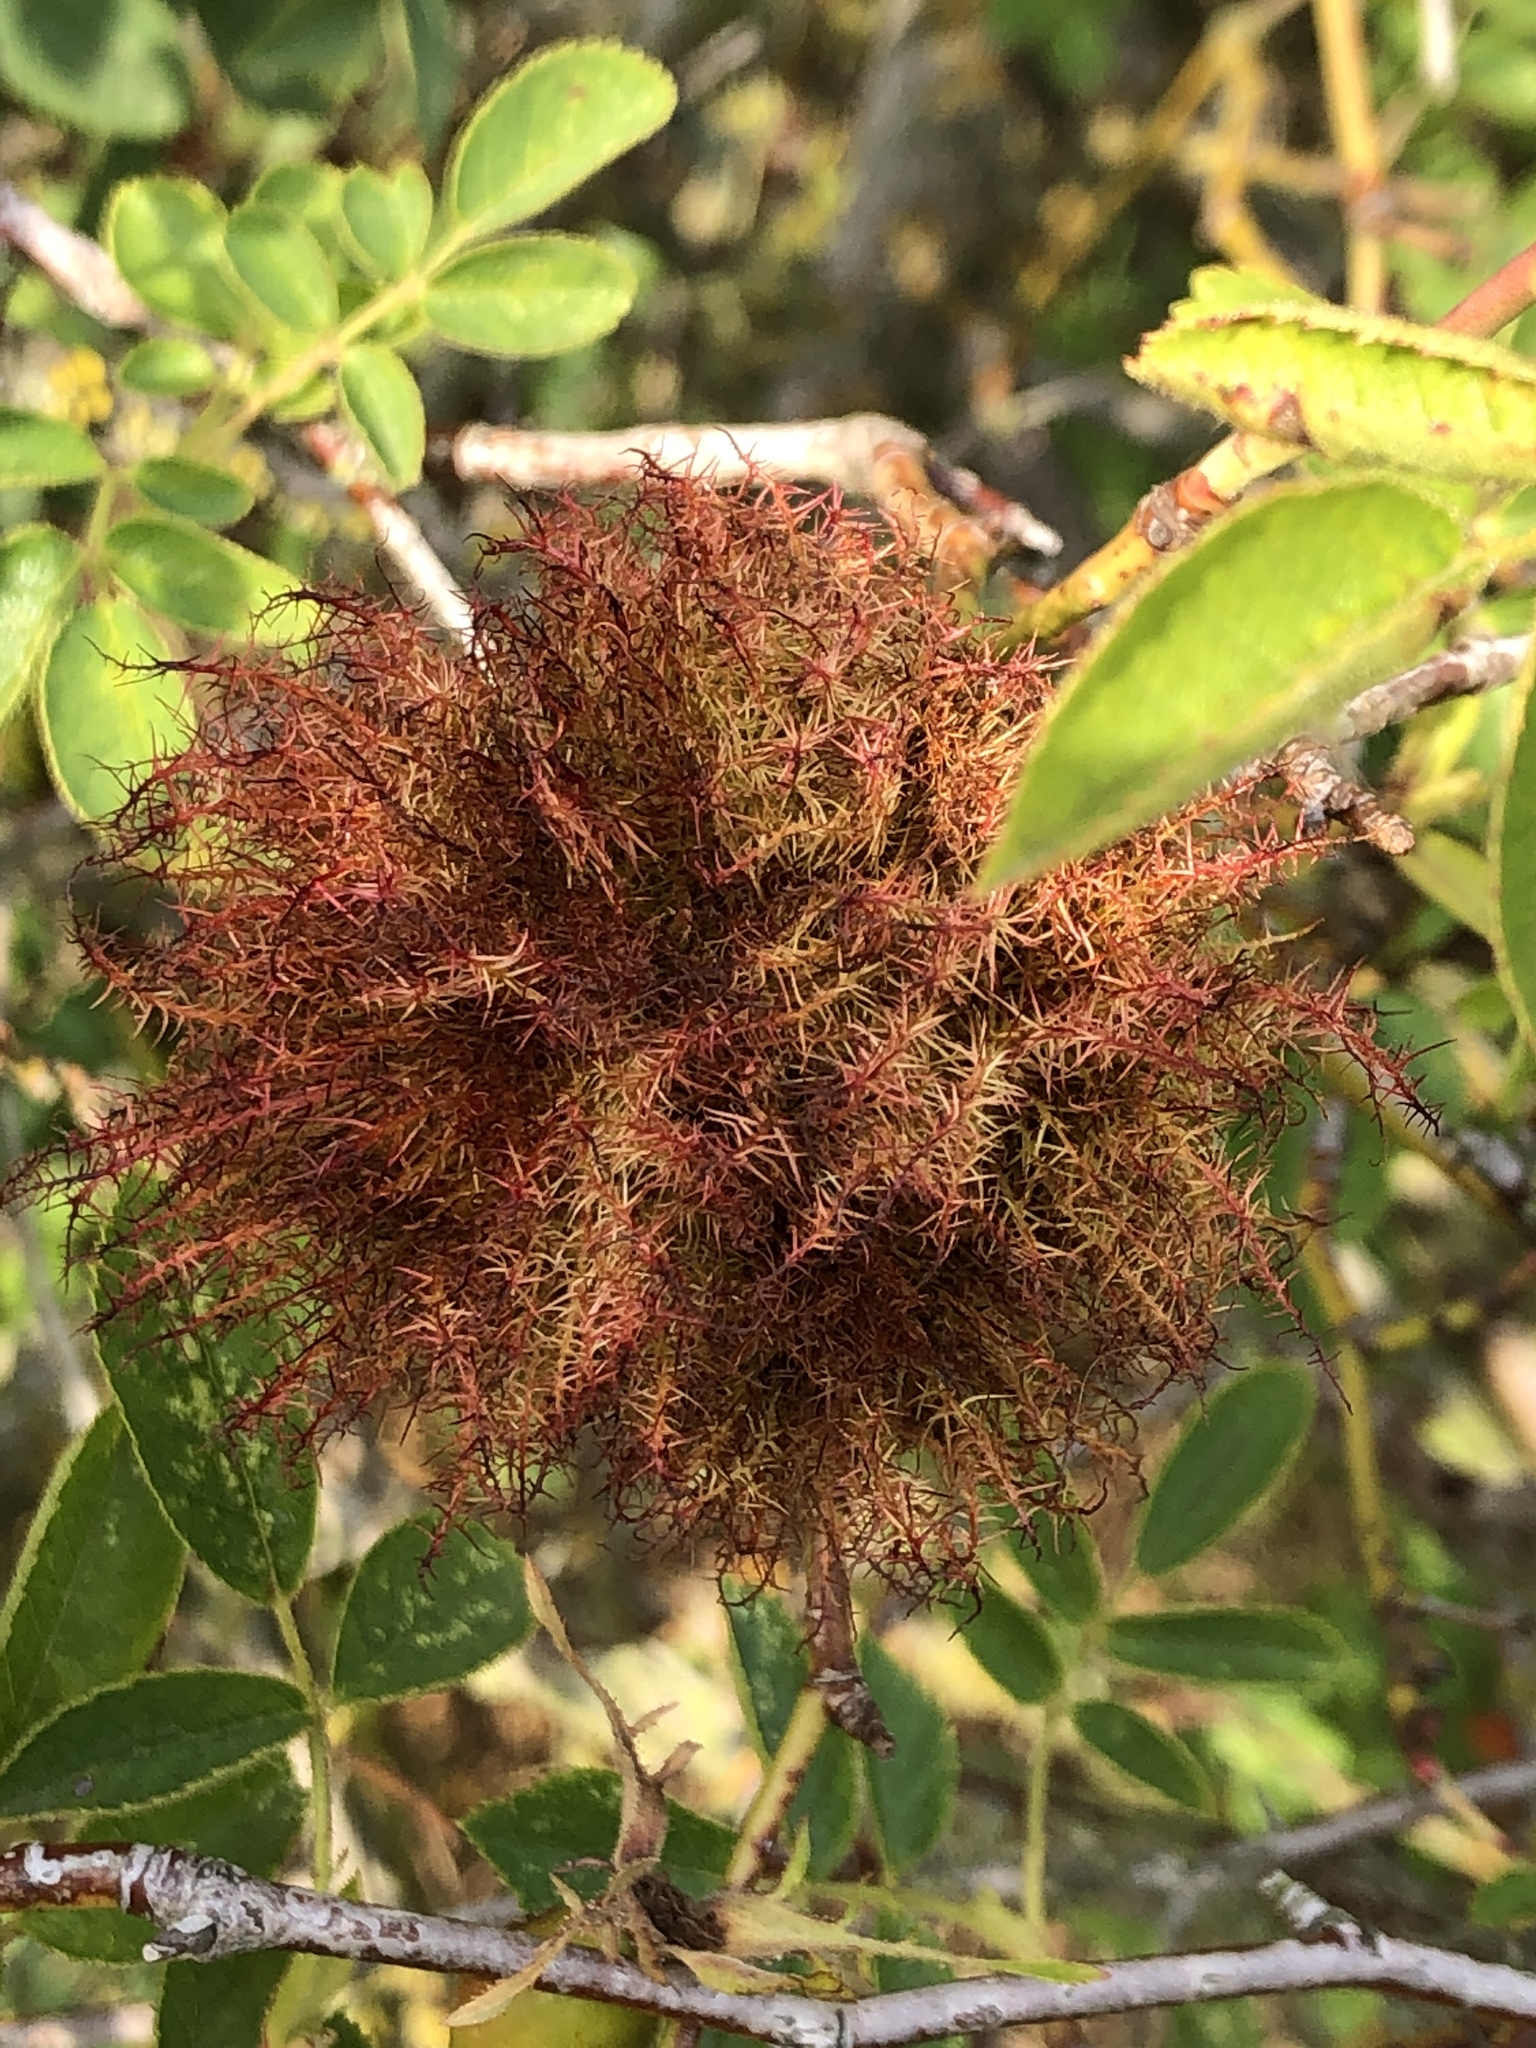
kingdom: Animalia
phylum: Arthropoda
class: Insecta
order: Hymenoptera
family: Cynipidae
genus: Diplolepis
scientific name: Diplolepis rosae
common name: Bedeguar gall
